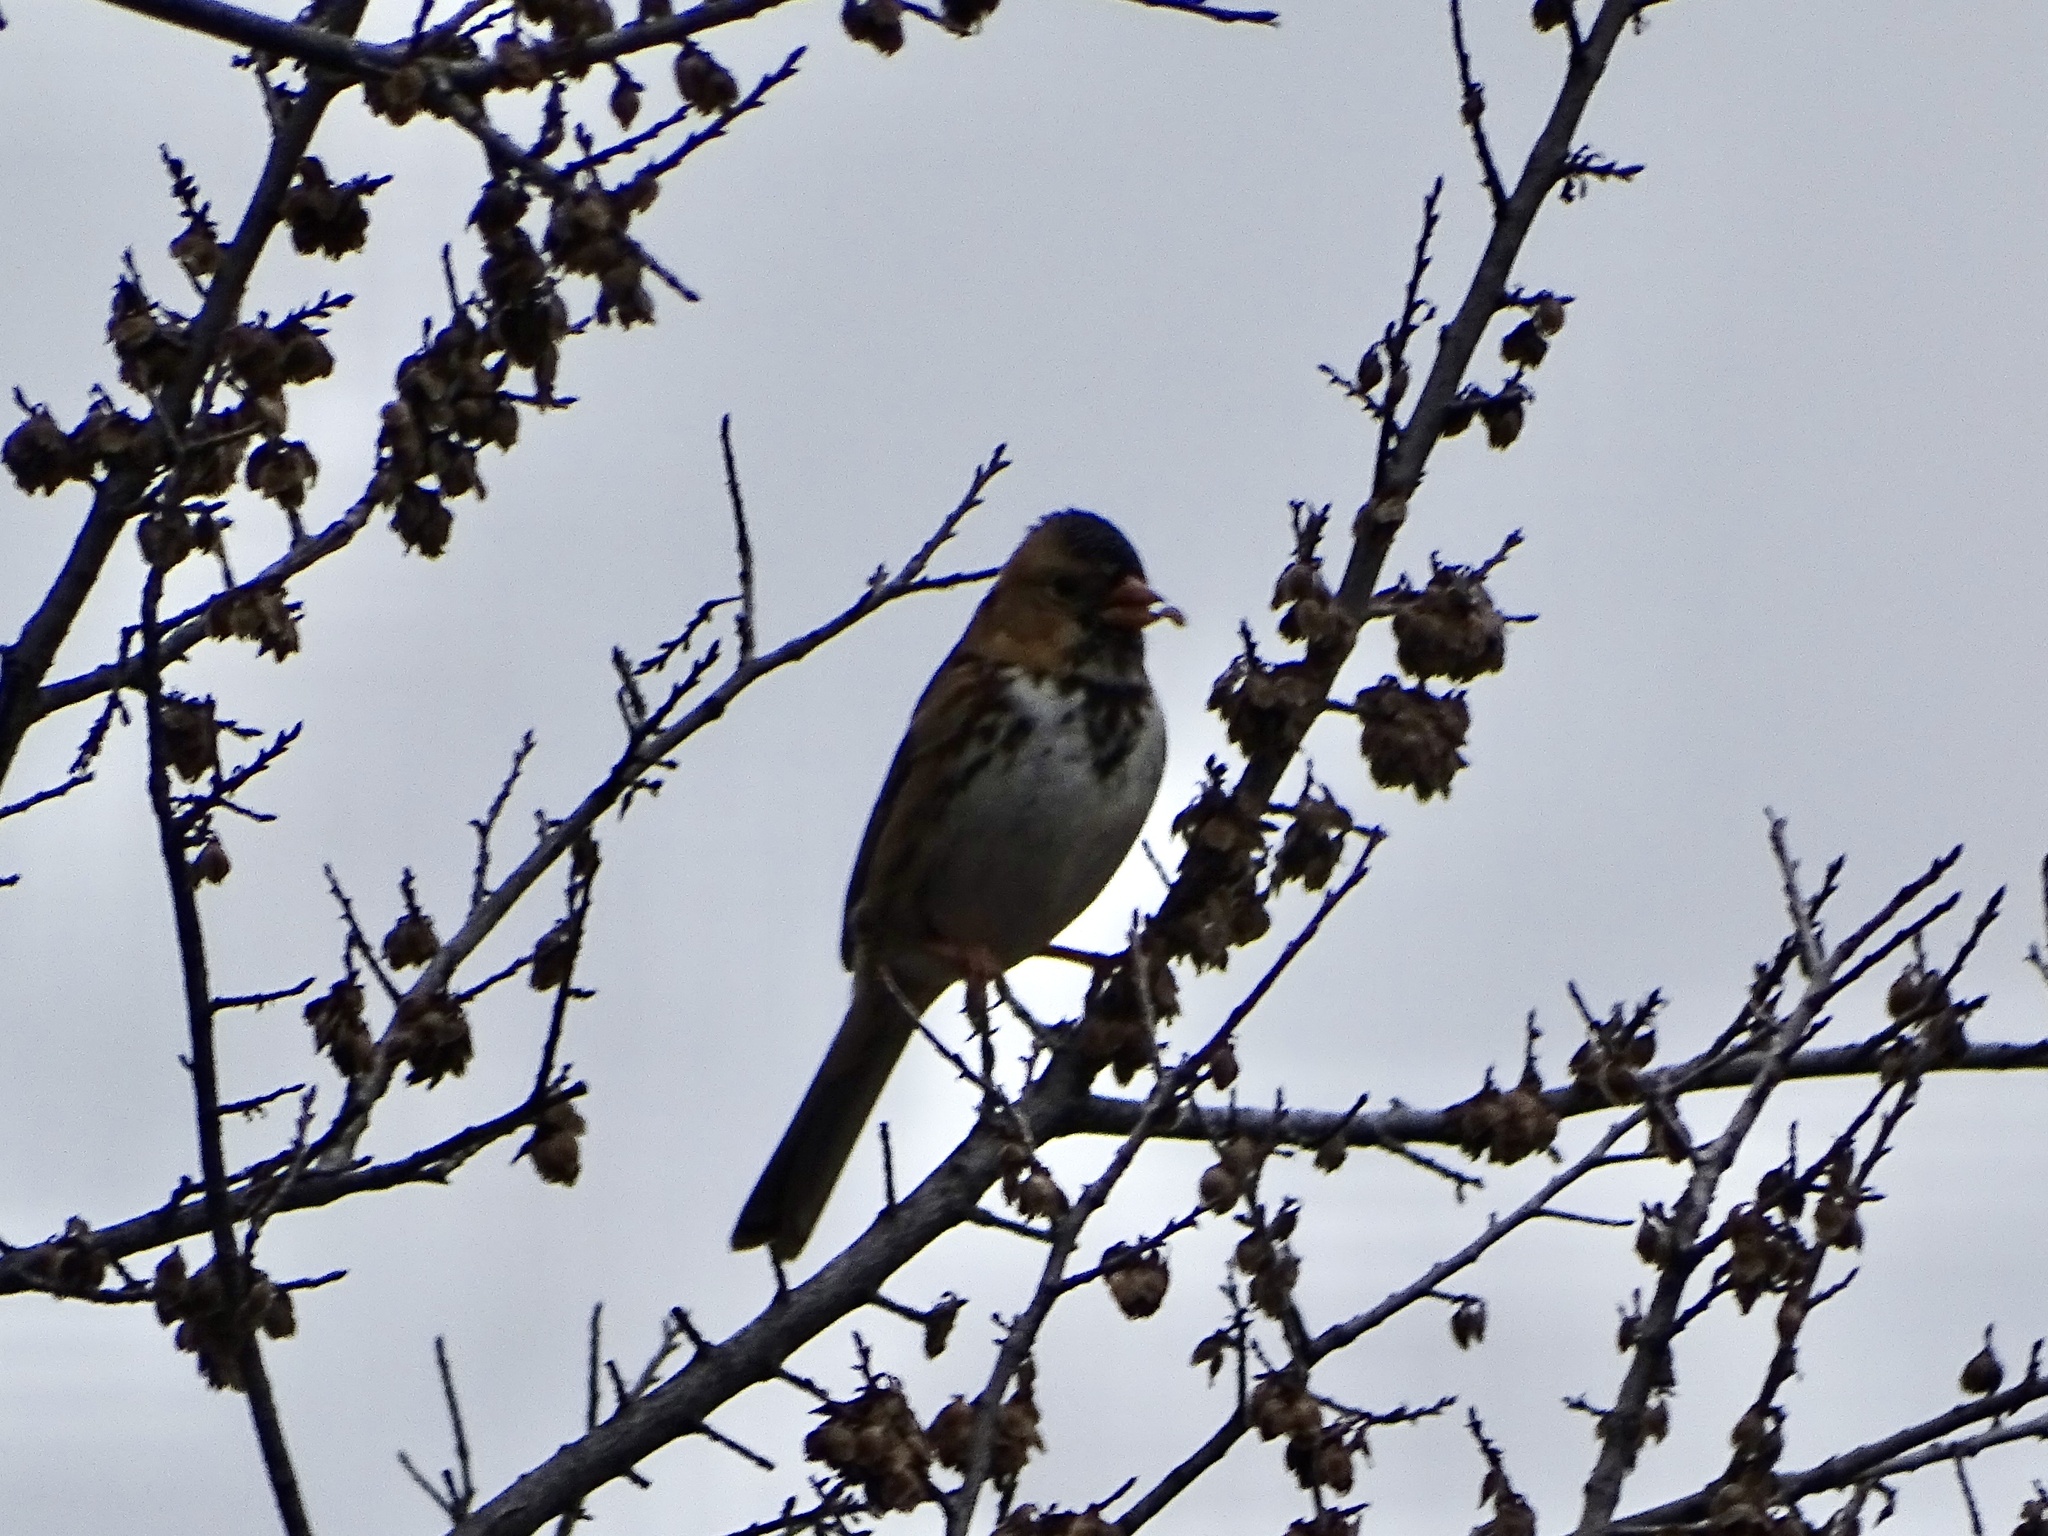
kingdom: Animalia
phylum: Chordata
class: Aves
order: Passeriformes
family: Passerellidae
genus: Zonotrichia
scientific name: Zonotrichia querula
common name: Harris's sparrow
